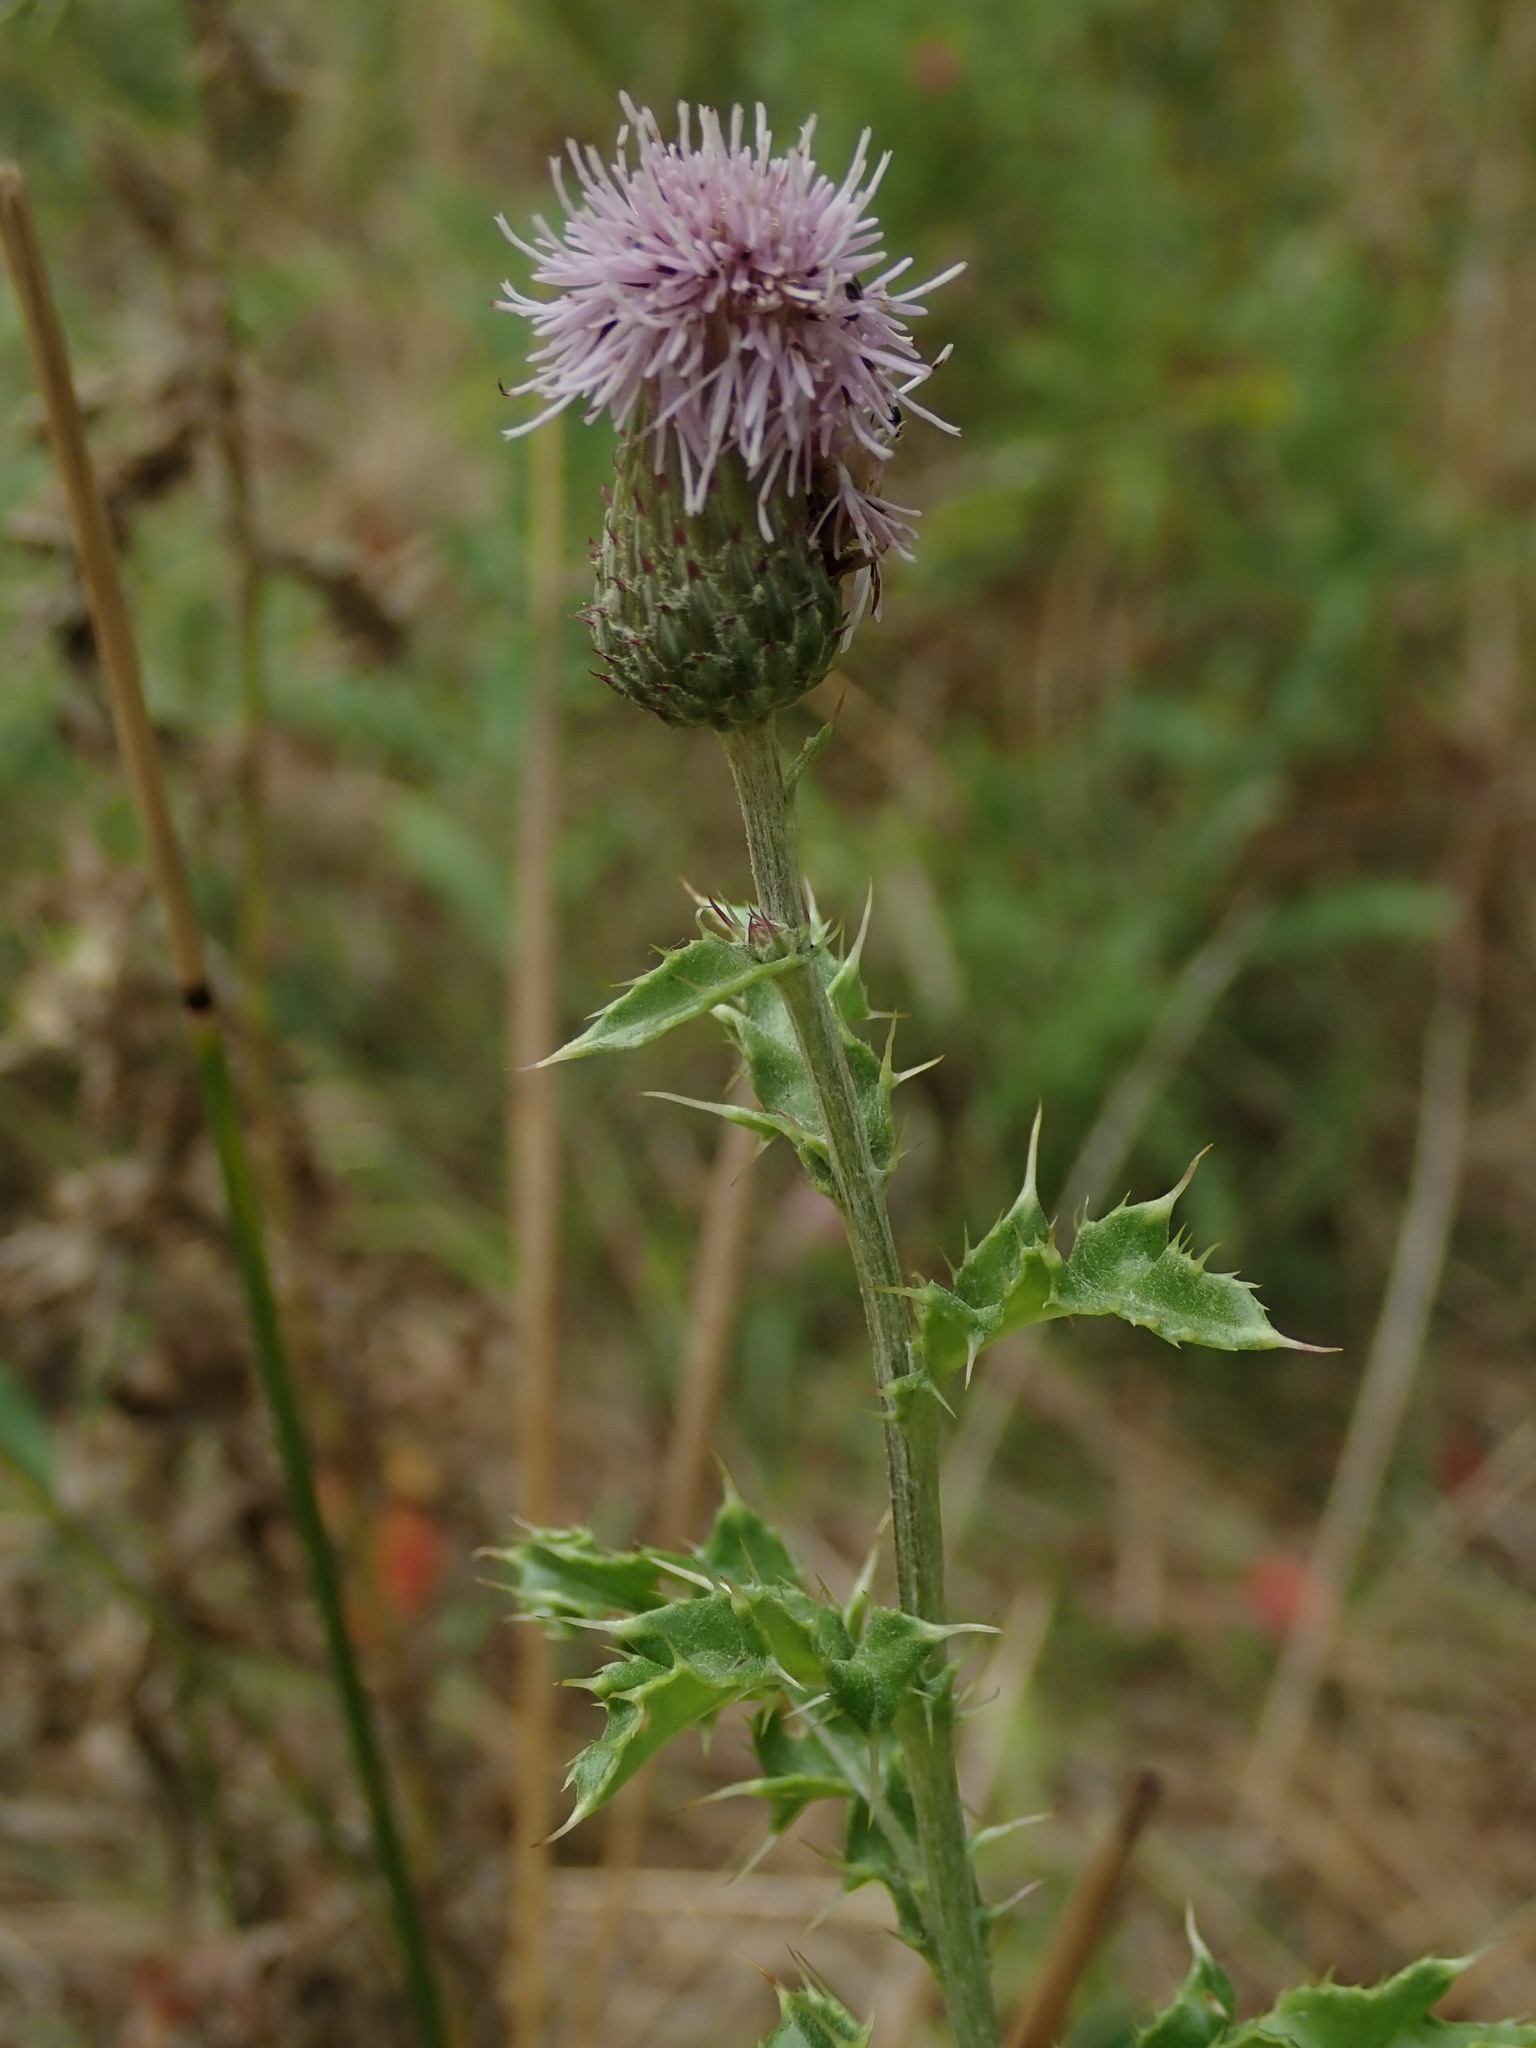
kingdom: Plantae
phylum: Tracheophyta
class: Magnoliopsida
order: Asterales
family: Asteraceae
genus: Cirsium
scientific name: Cirsium arvense
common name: Creeping thistle
